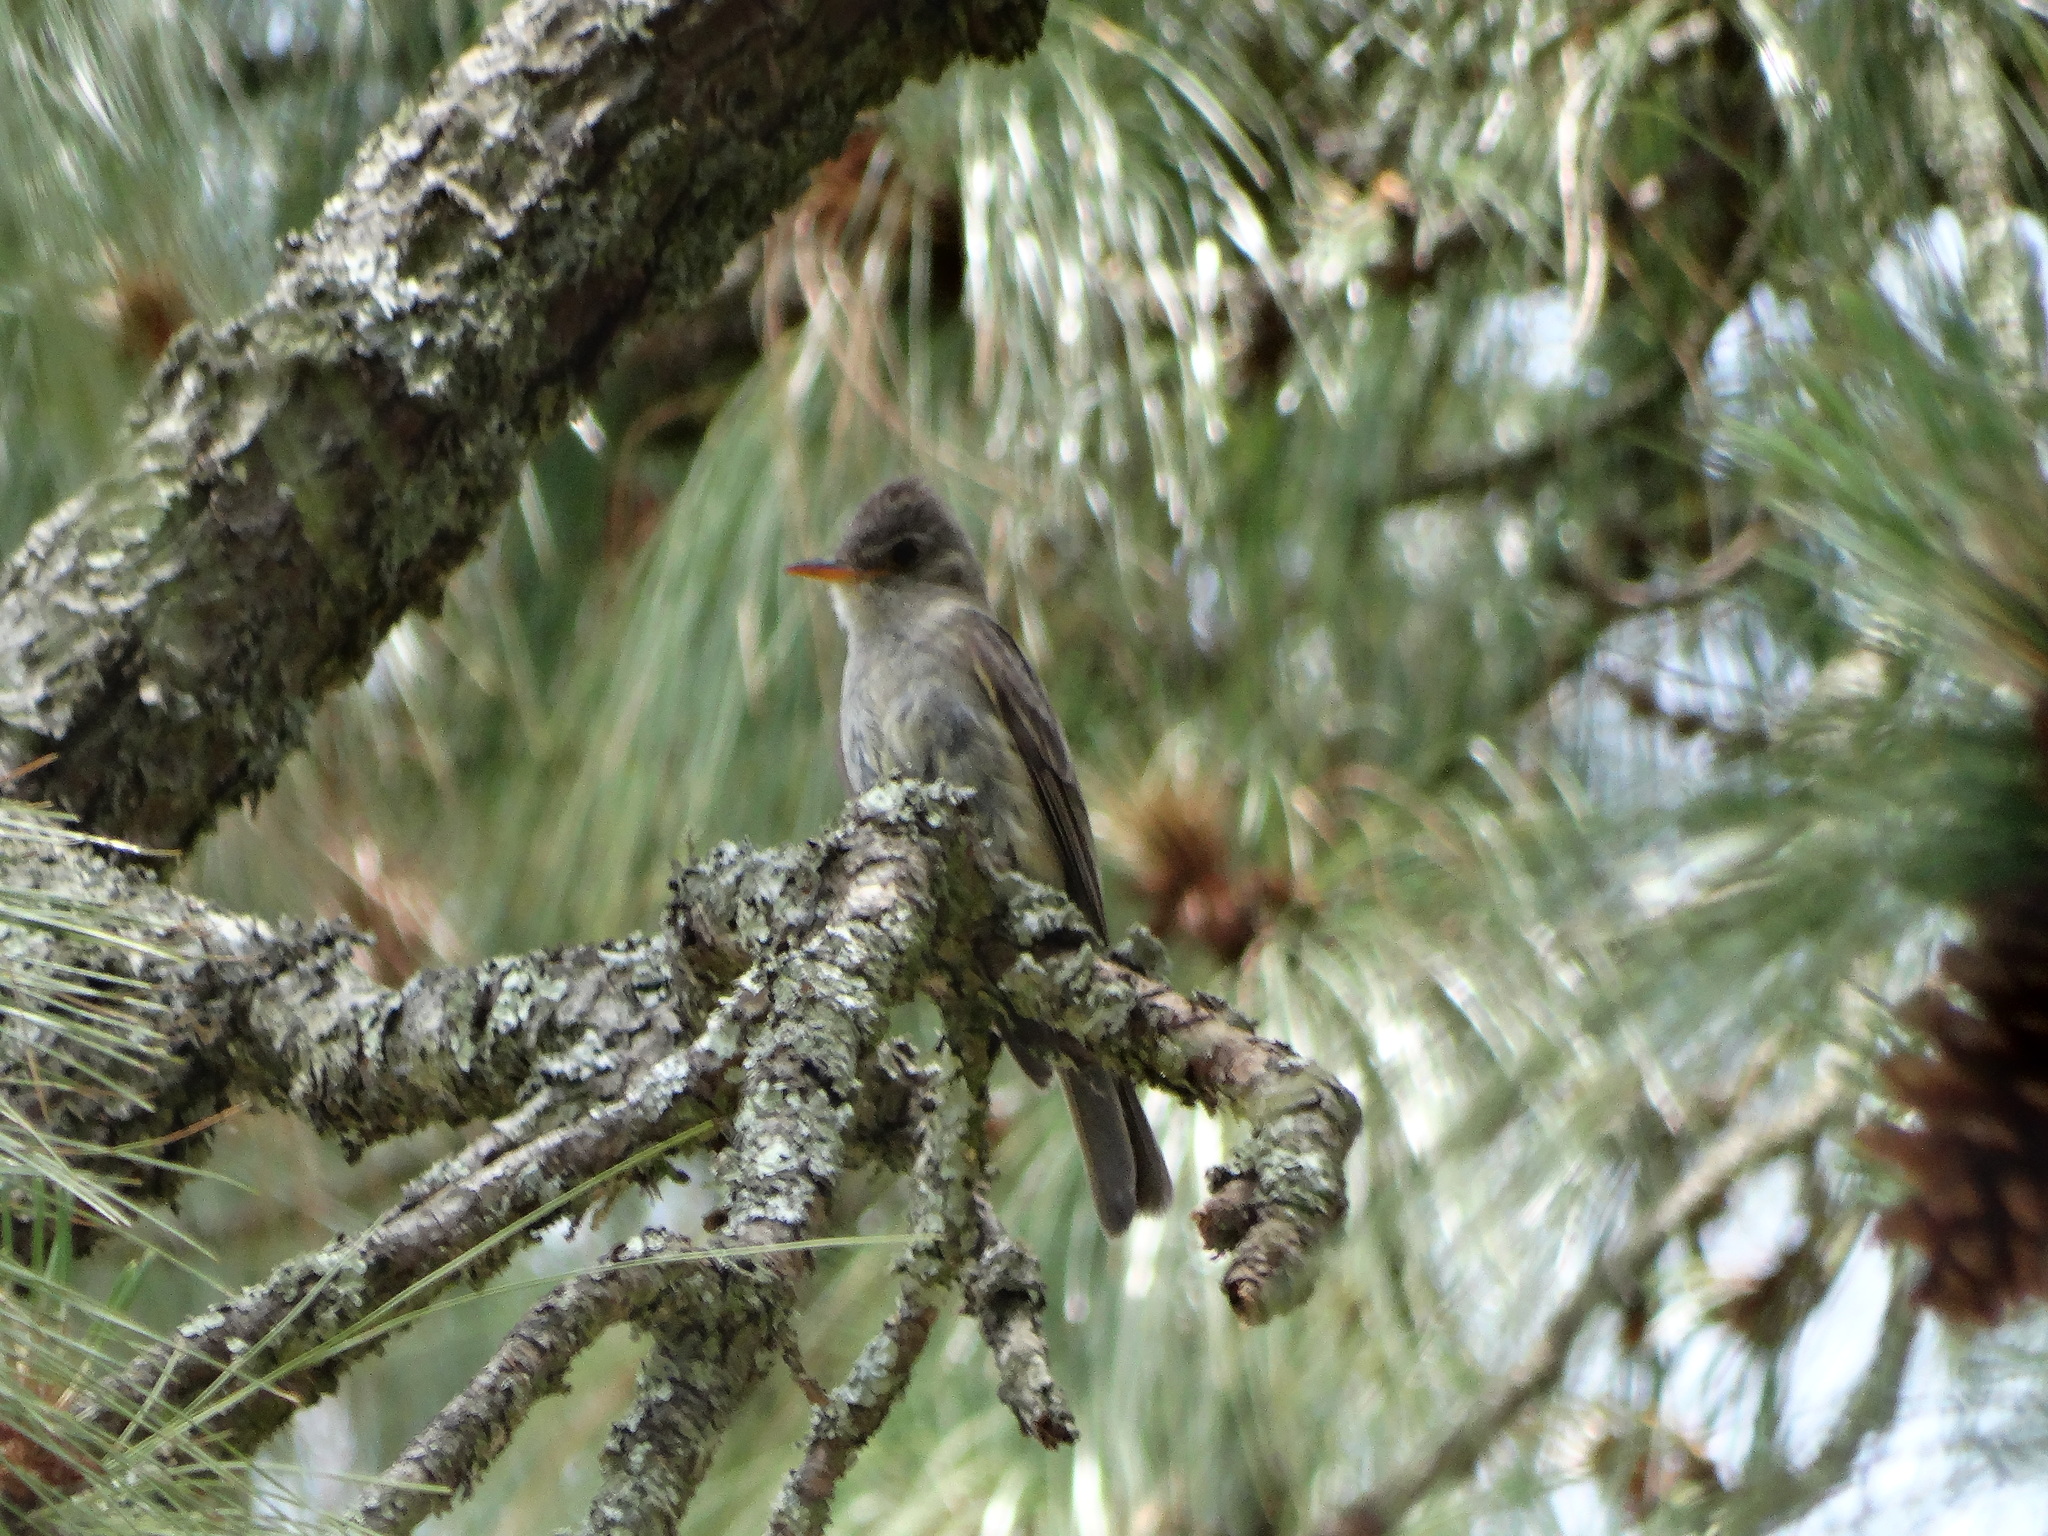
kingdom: Animalia
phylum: Chordata
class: Aves
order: Passeriformes
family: Tyrannidae
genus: Contopus
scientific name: Contopus pertinax
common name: Greater pewee
